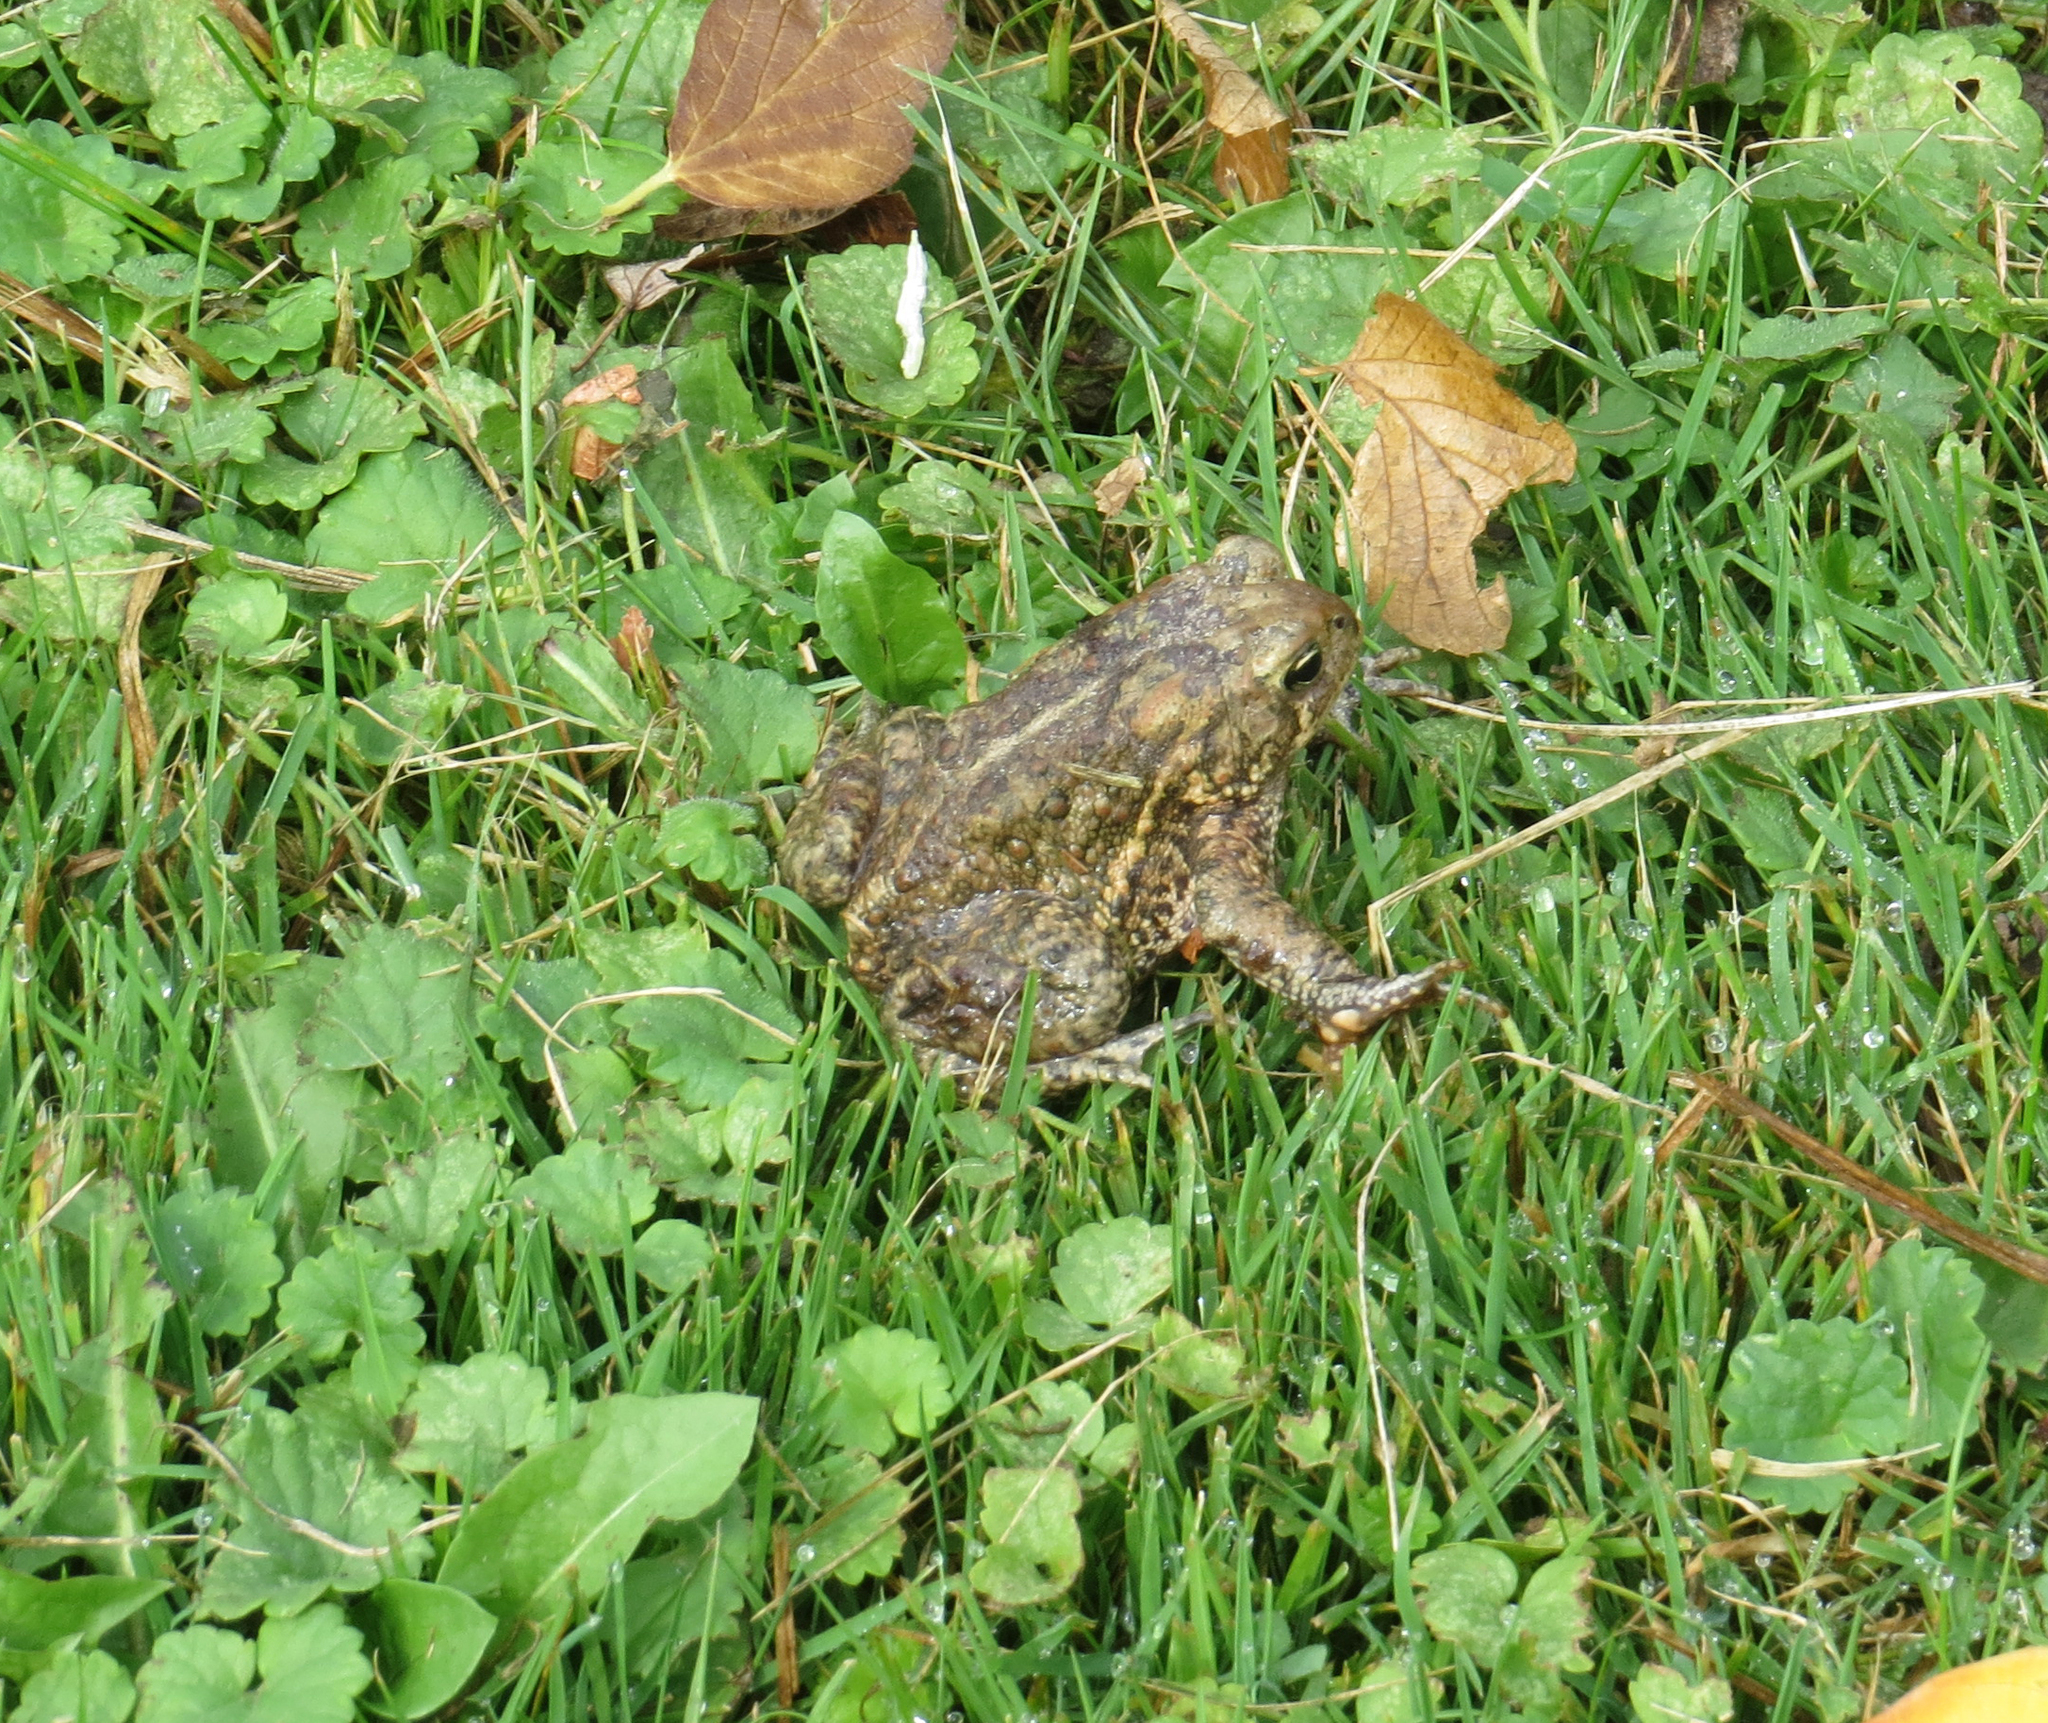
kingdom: Animalia
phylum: Chordata
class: Amphibia
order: Anura
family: Bufonidae
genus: Anaxyrus
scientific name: Anaxyrus americanus
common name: American toad
